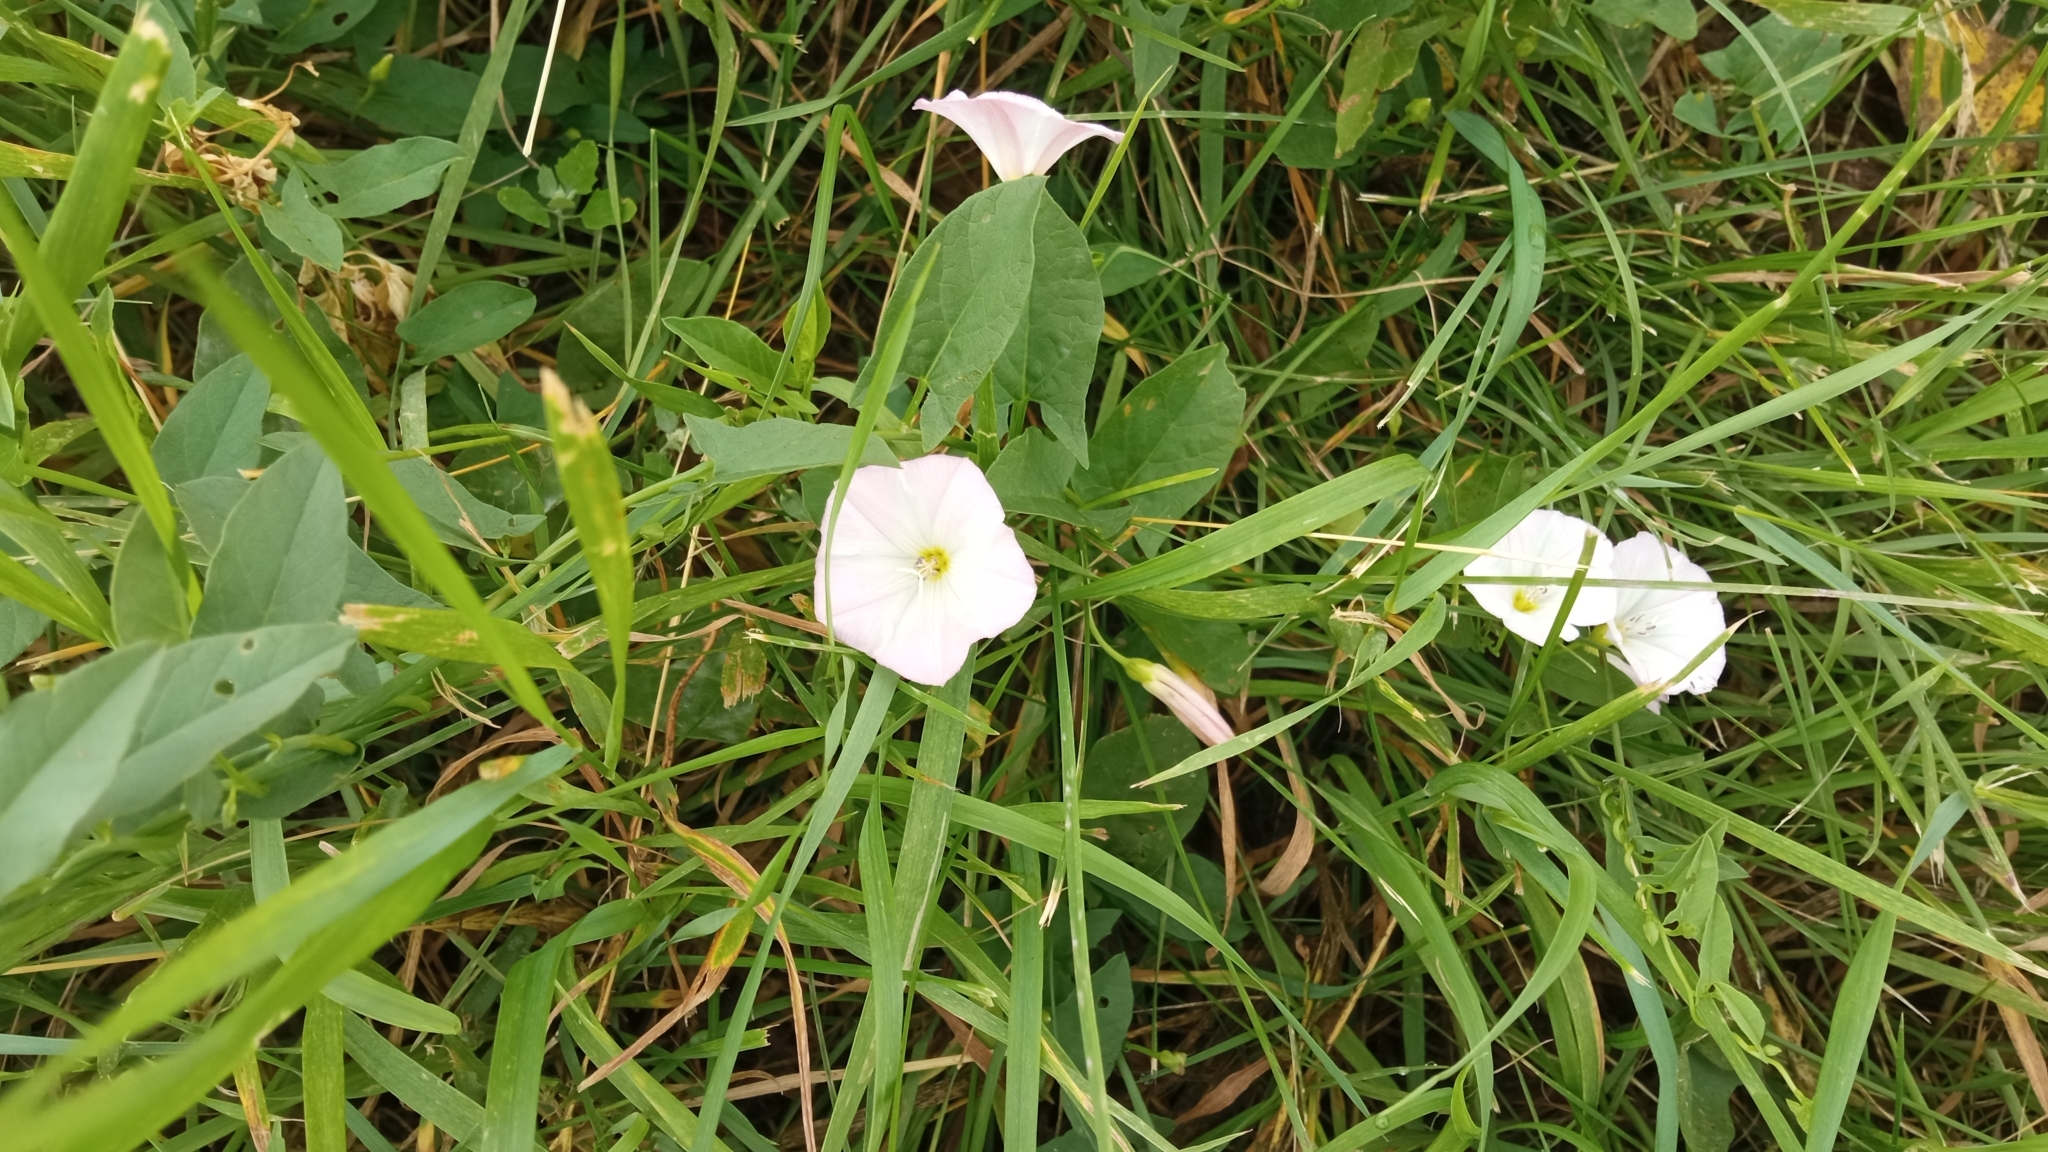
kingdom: Plantae
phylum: Tracheophyta
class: Magnoliopsida
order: Solanales
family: Convolvulaceae
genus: Convolvulus
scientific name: Convolvulus arvensis
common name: Field bindweed
